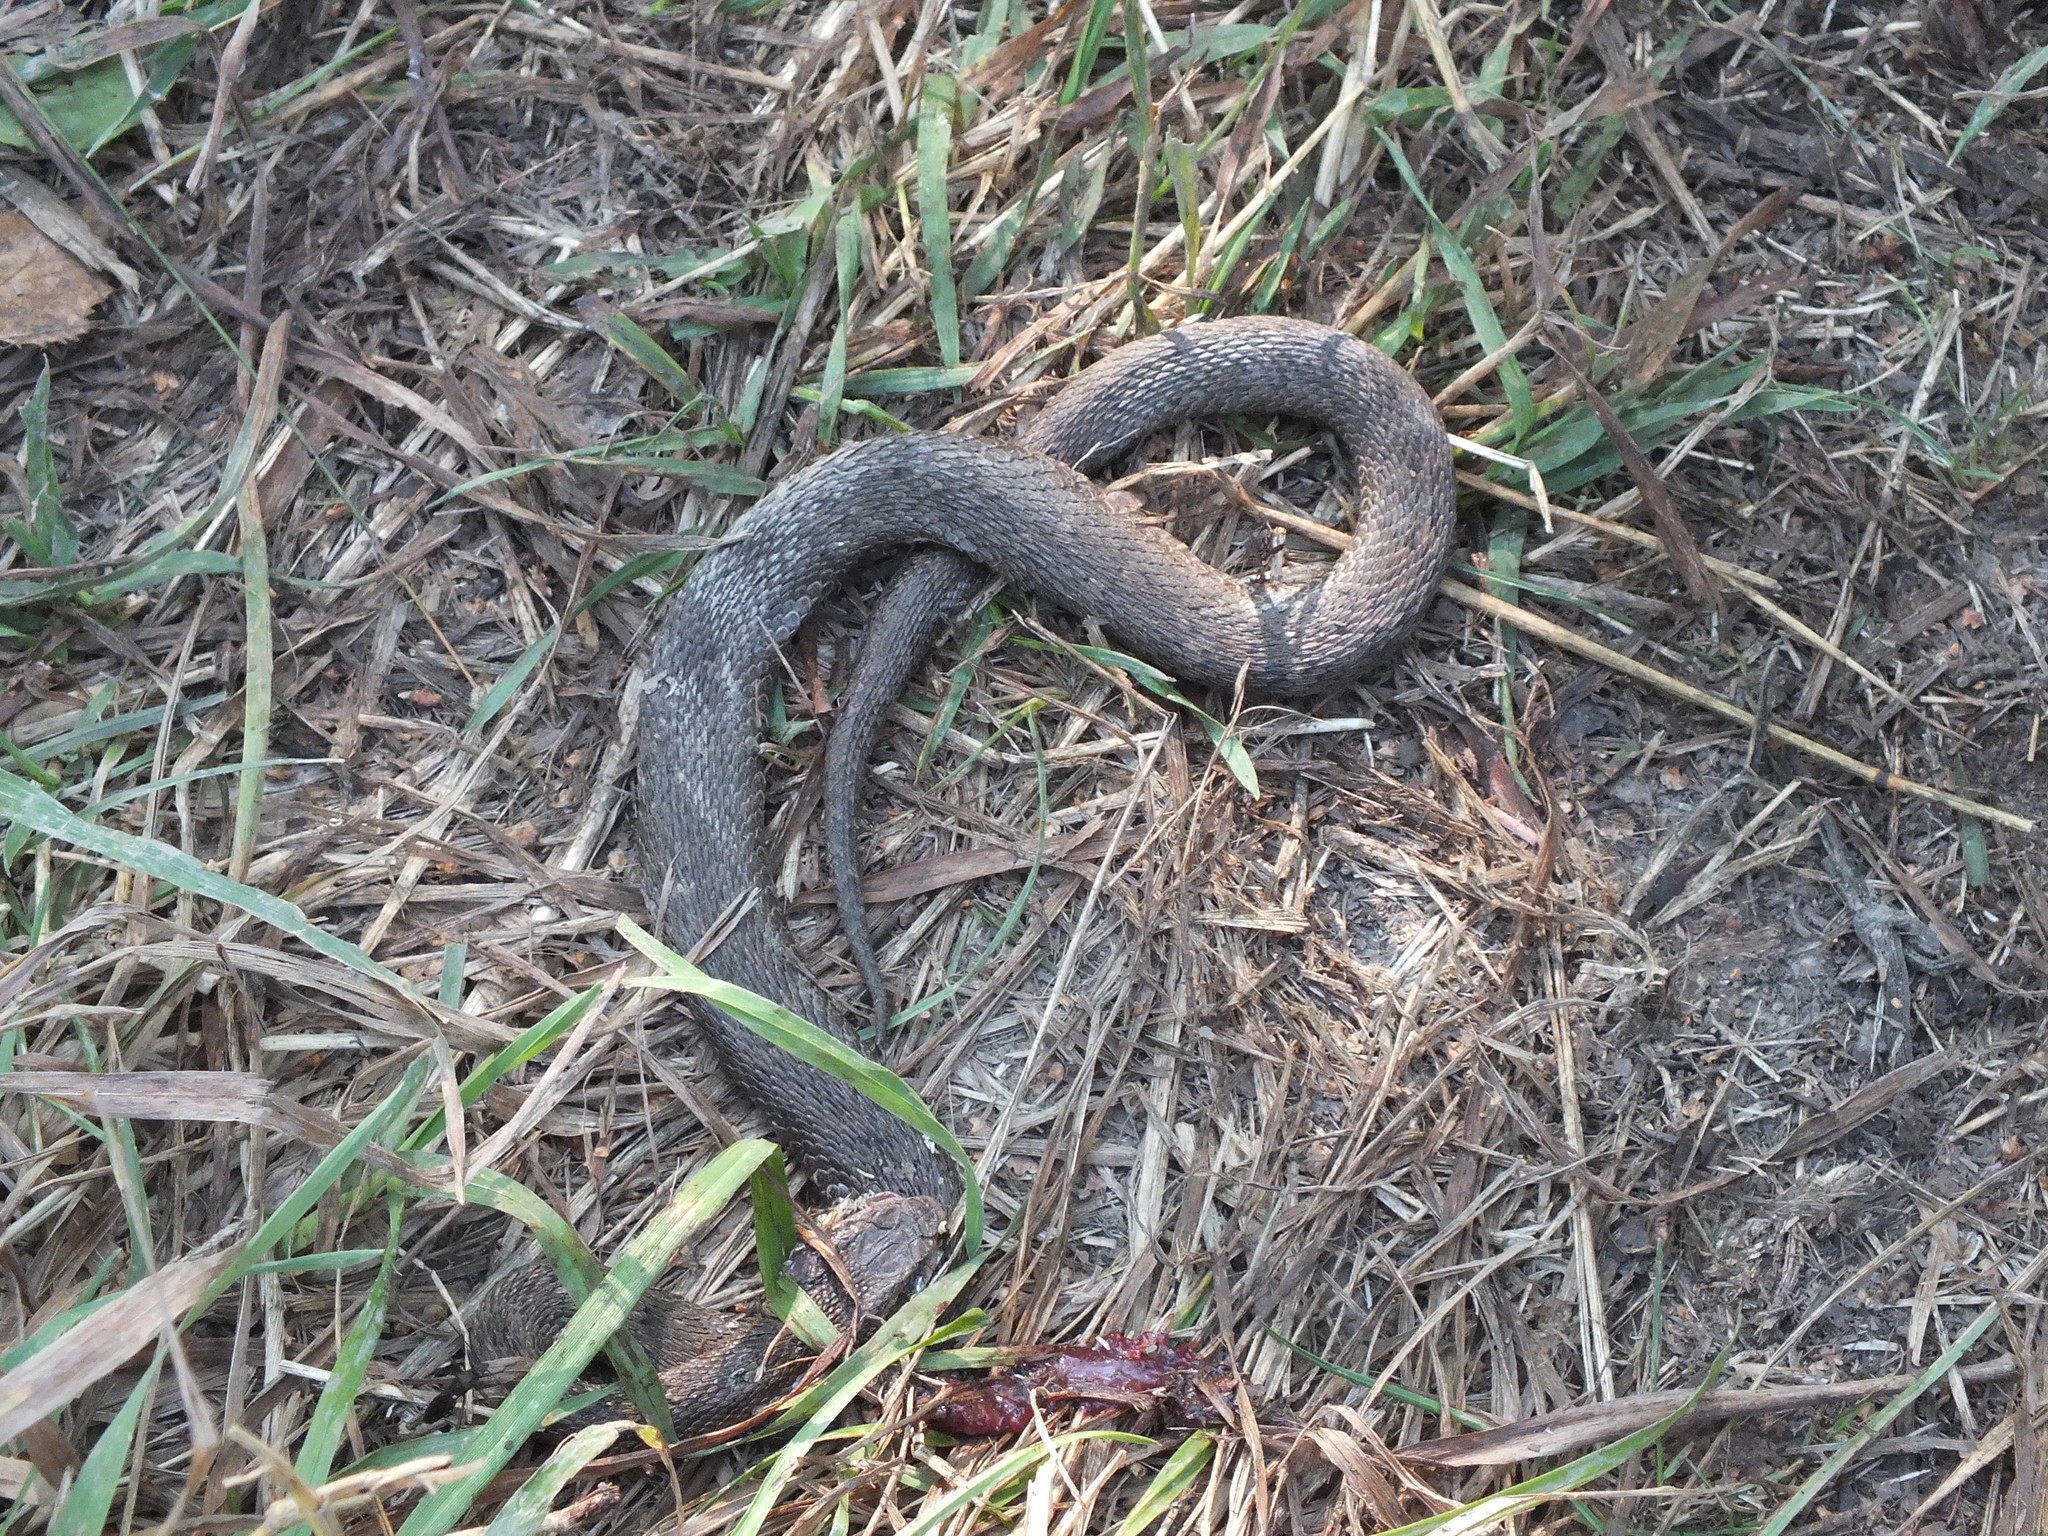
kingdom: Animalia
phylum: Chordata
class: Squamata
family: Viperidae
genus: Gloydius
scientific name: Gloydius halys
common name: Halys pit viper
